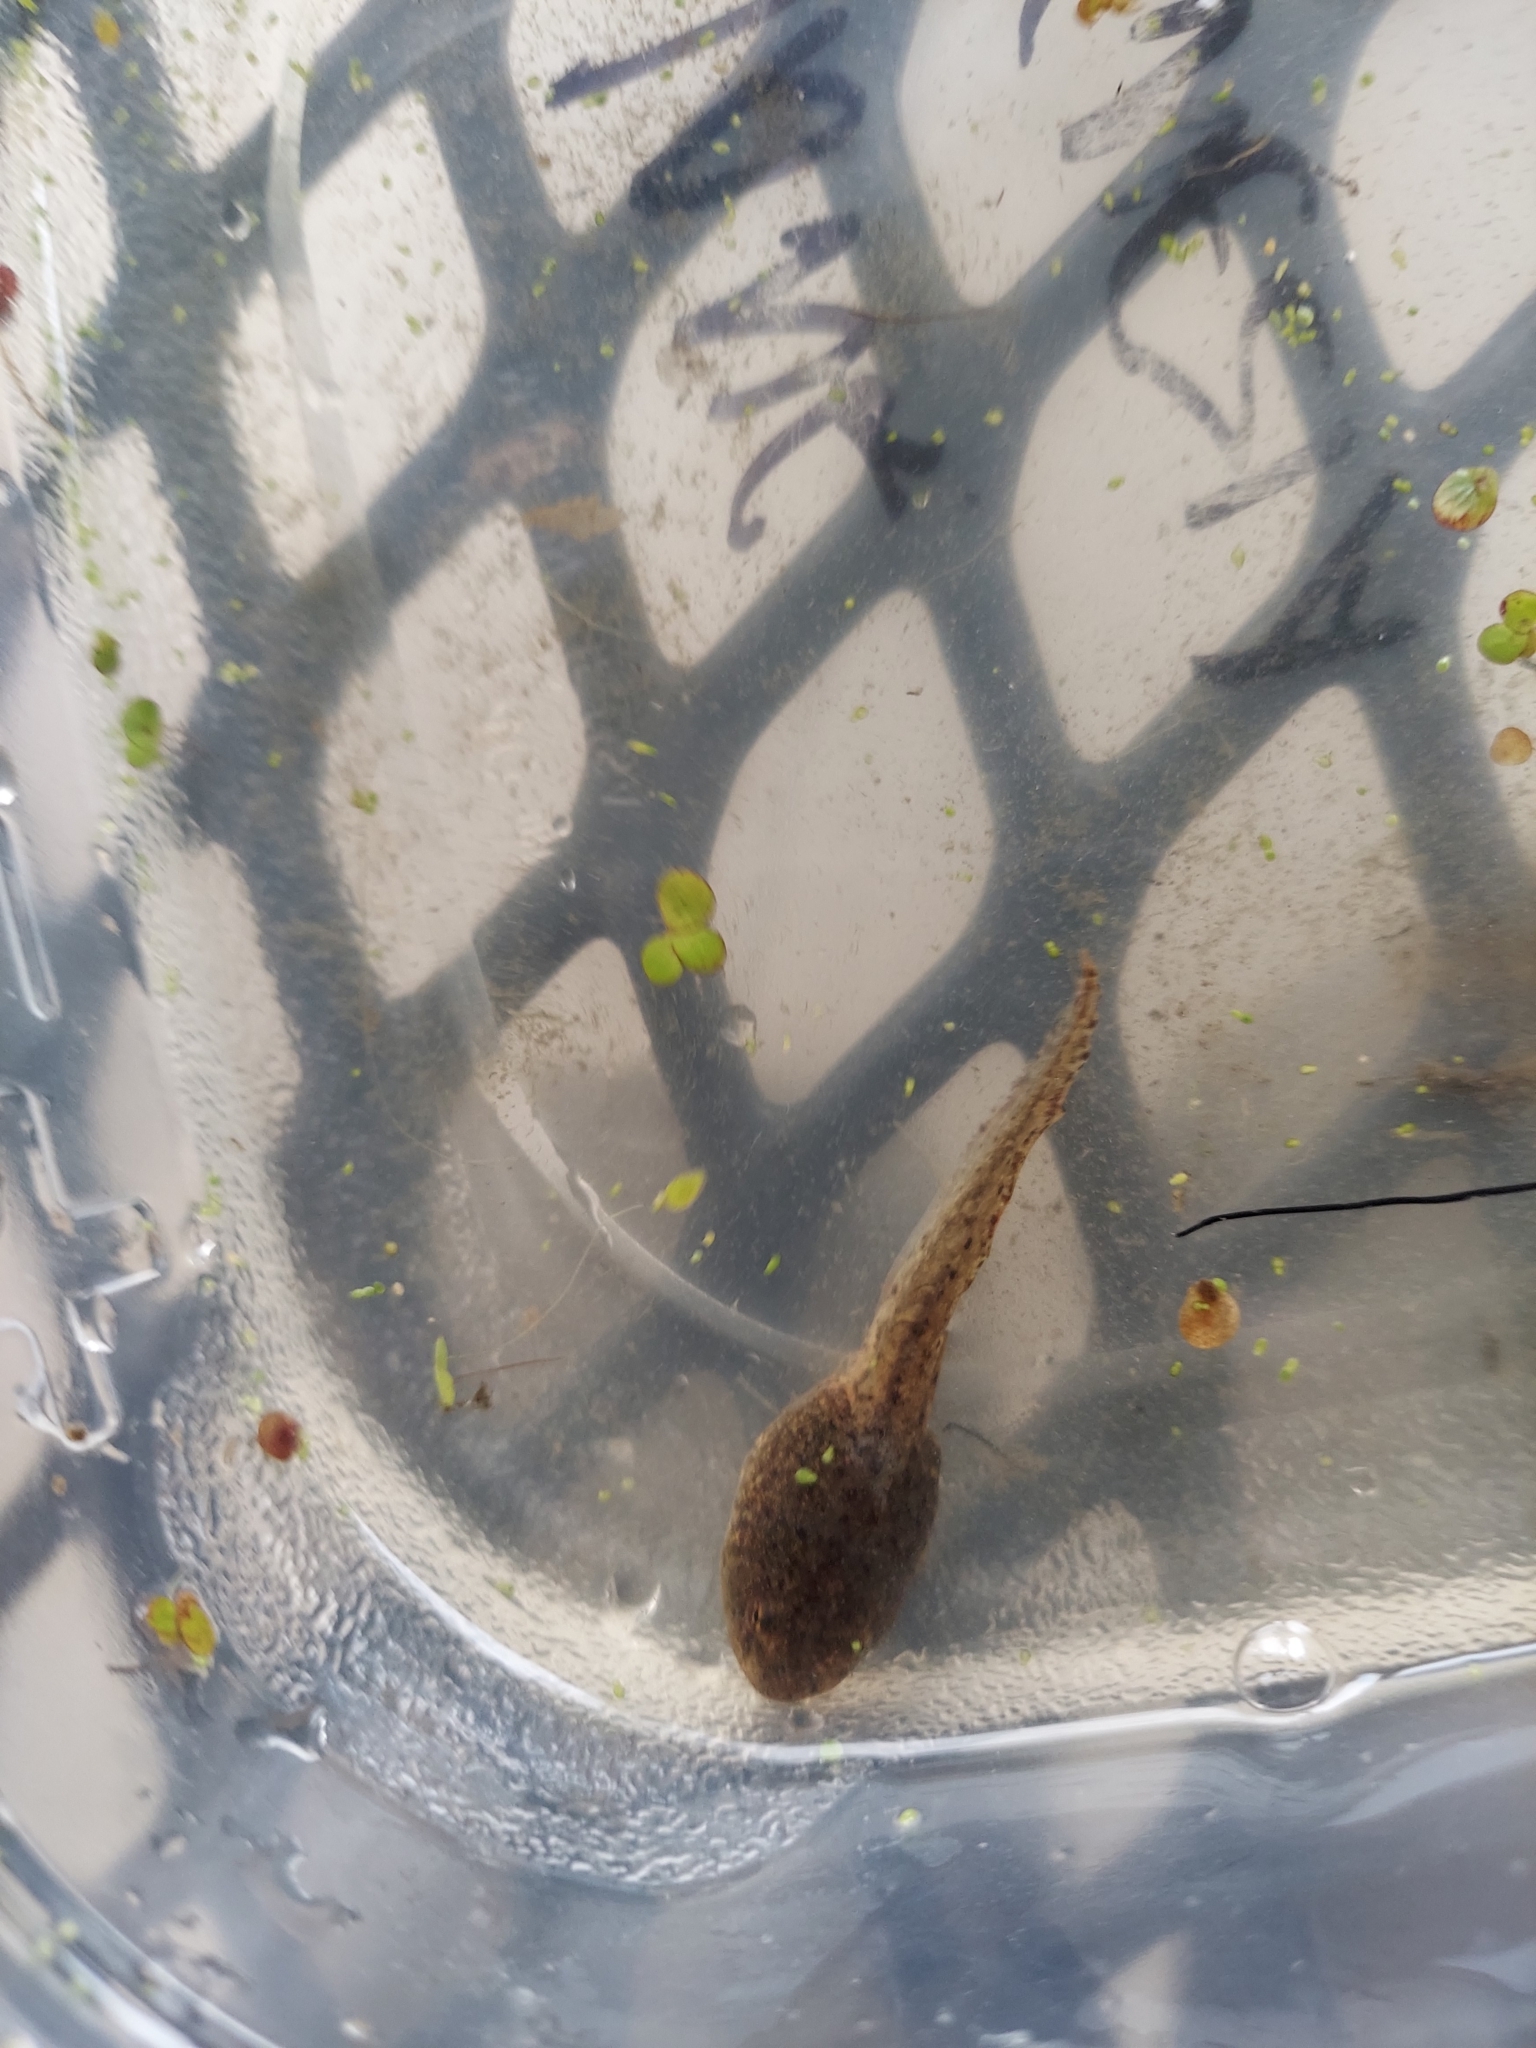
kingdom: Animalia
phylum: Chordata
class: Amphibia
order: Anura
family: Ranidae
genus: Lithobates
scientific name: Lithobates clamitans
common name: Green frog
